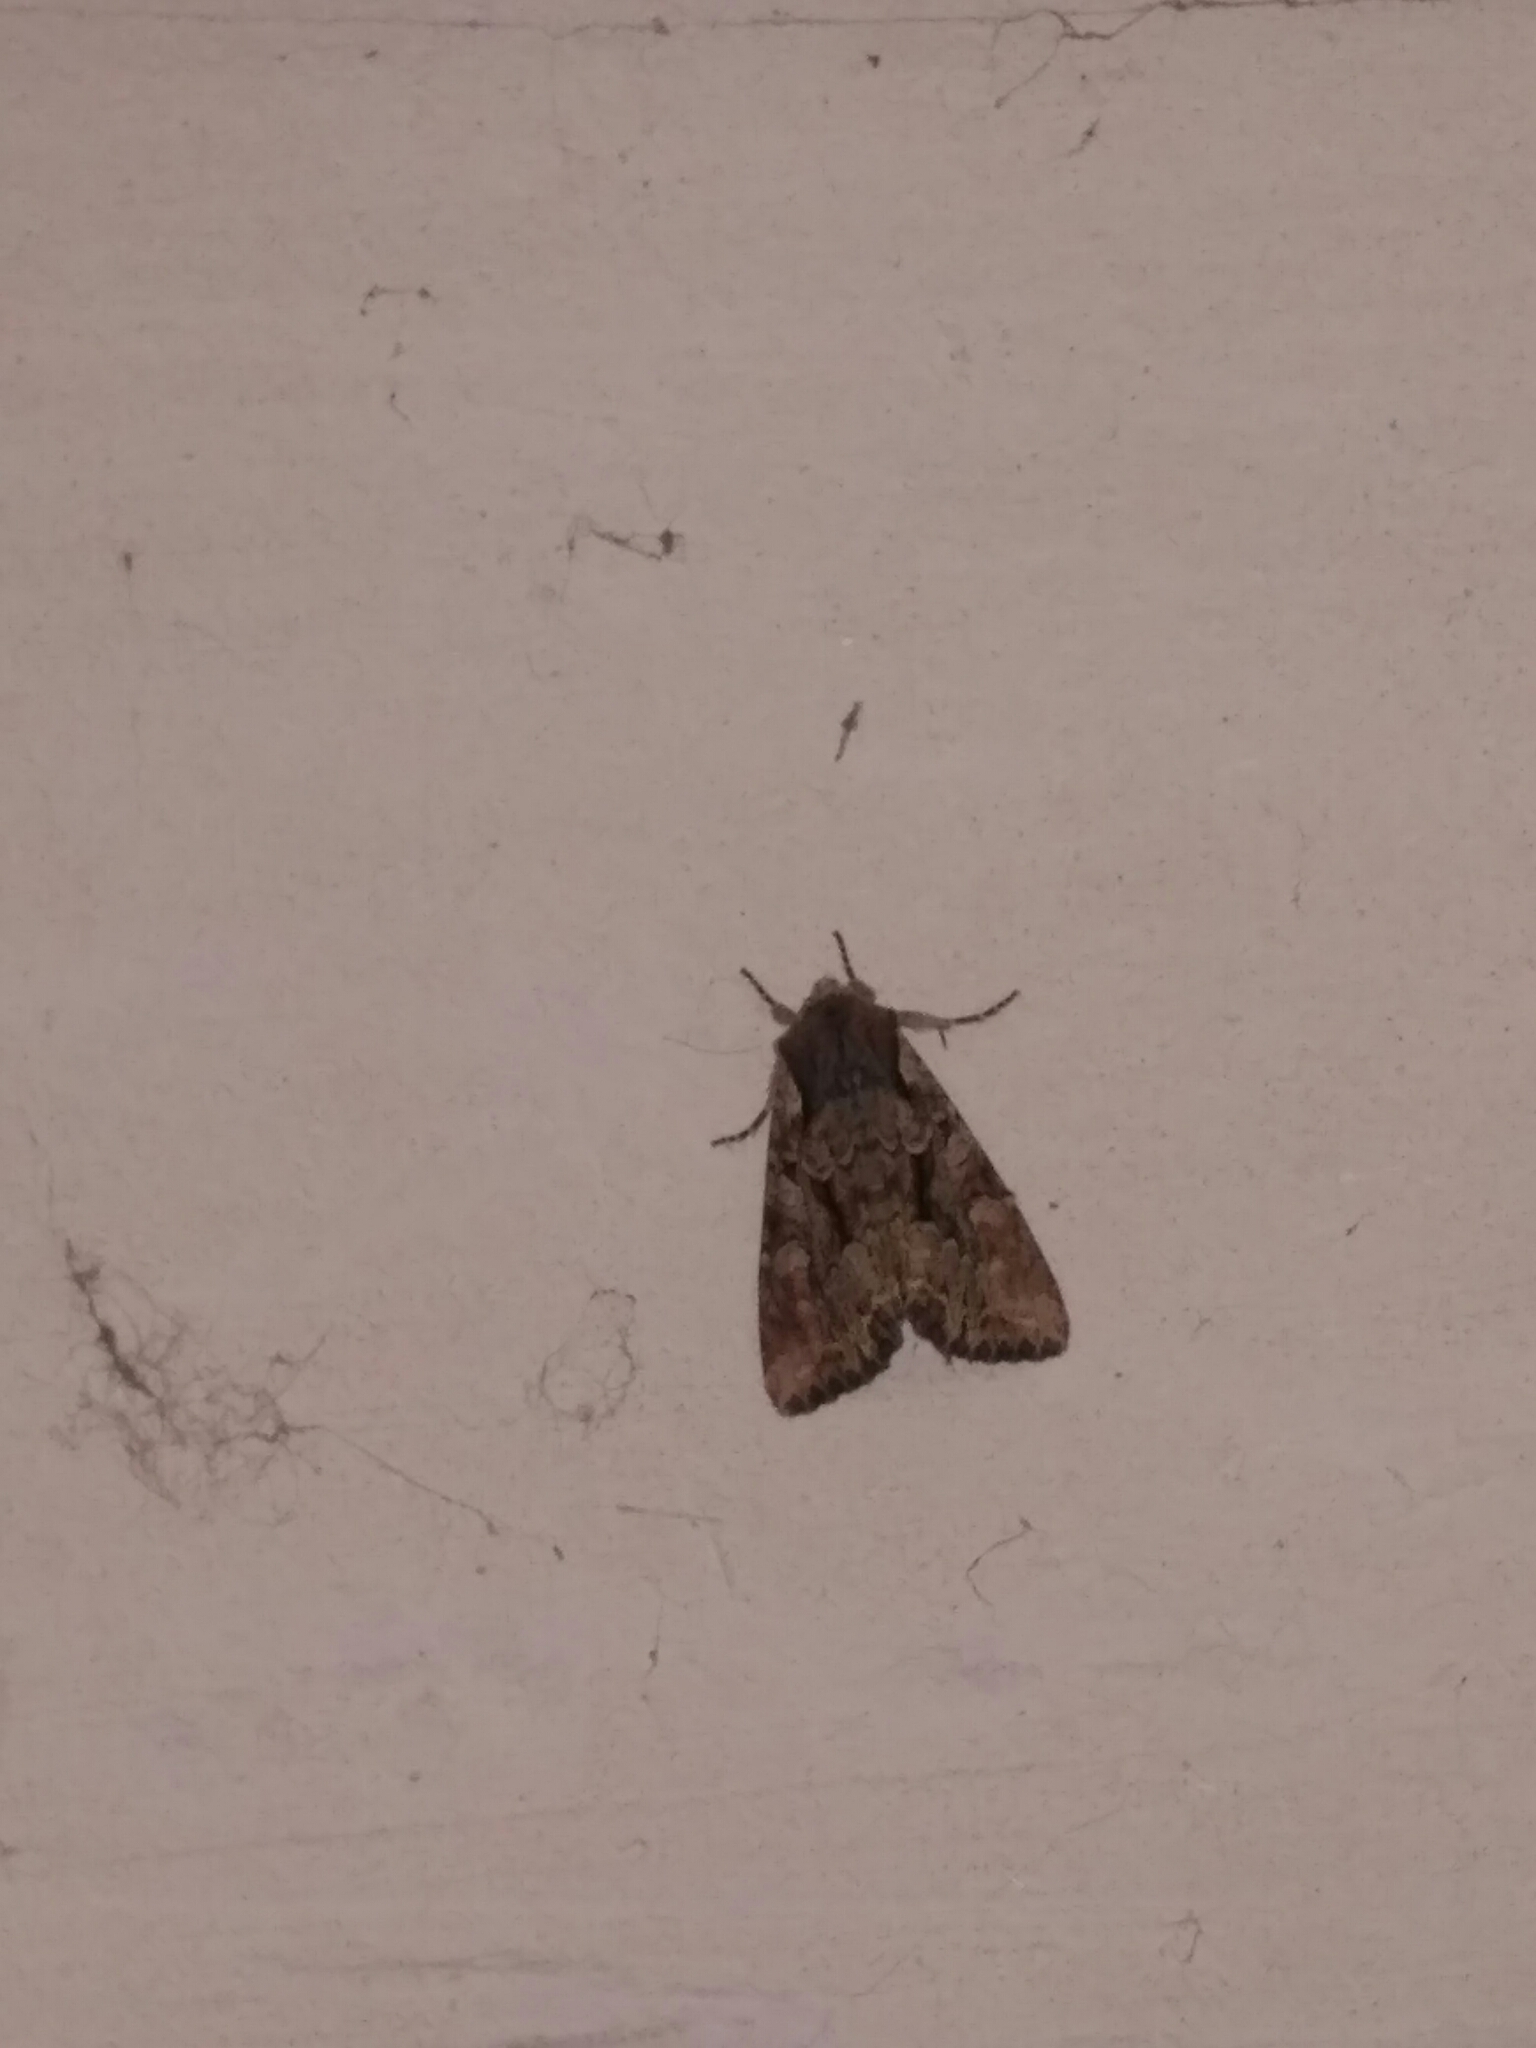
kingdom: Animalia
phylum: Arthropoda
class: Insecta
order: Lepidoptera
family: Noctuidae
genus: Lacanobia
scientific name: Lacanobia w-latinum
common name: Light brocade
